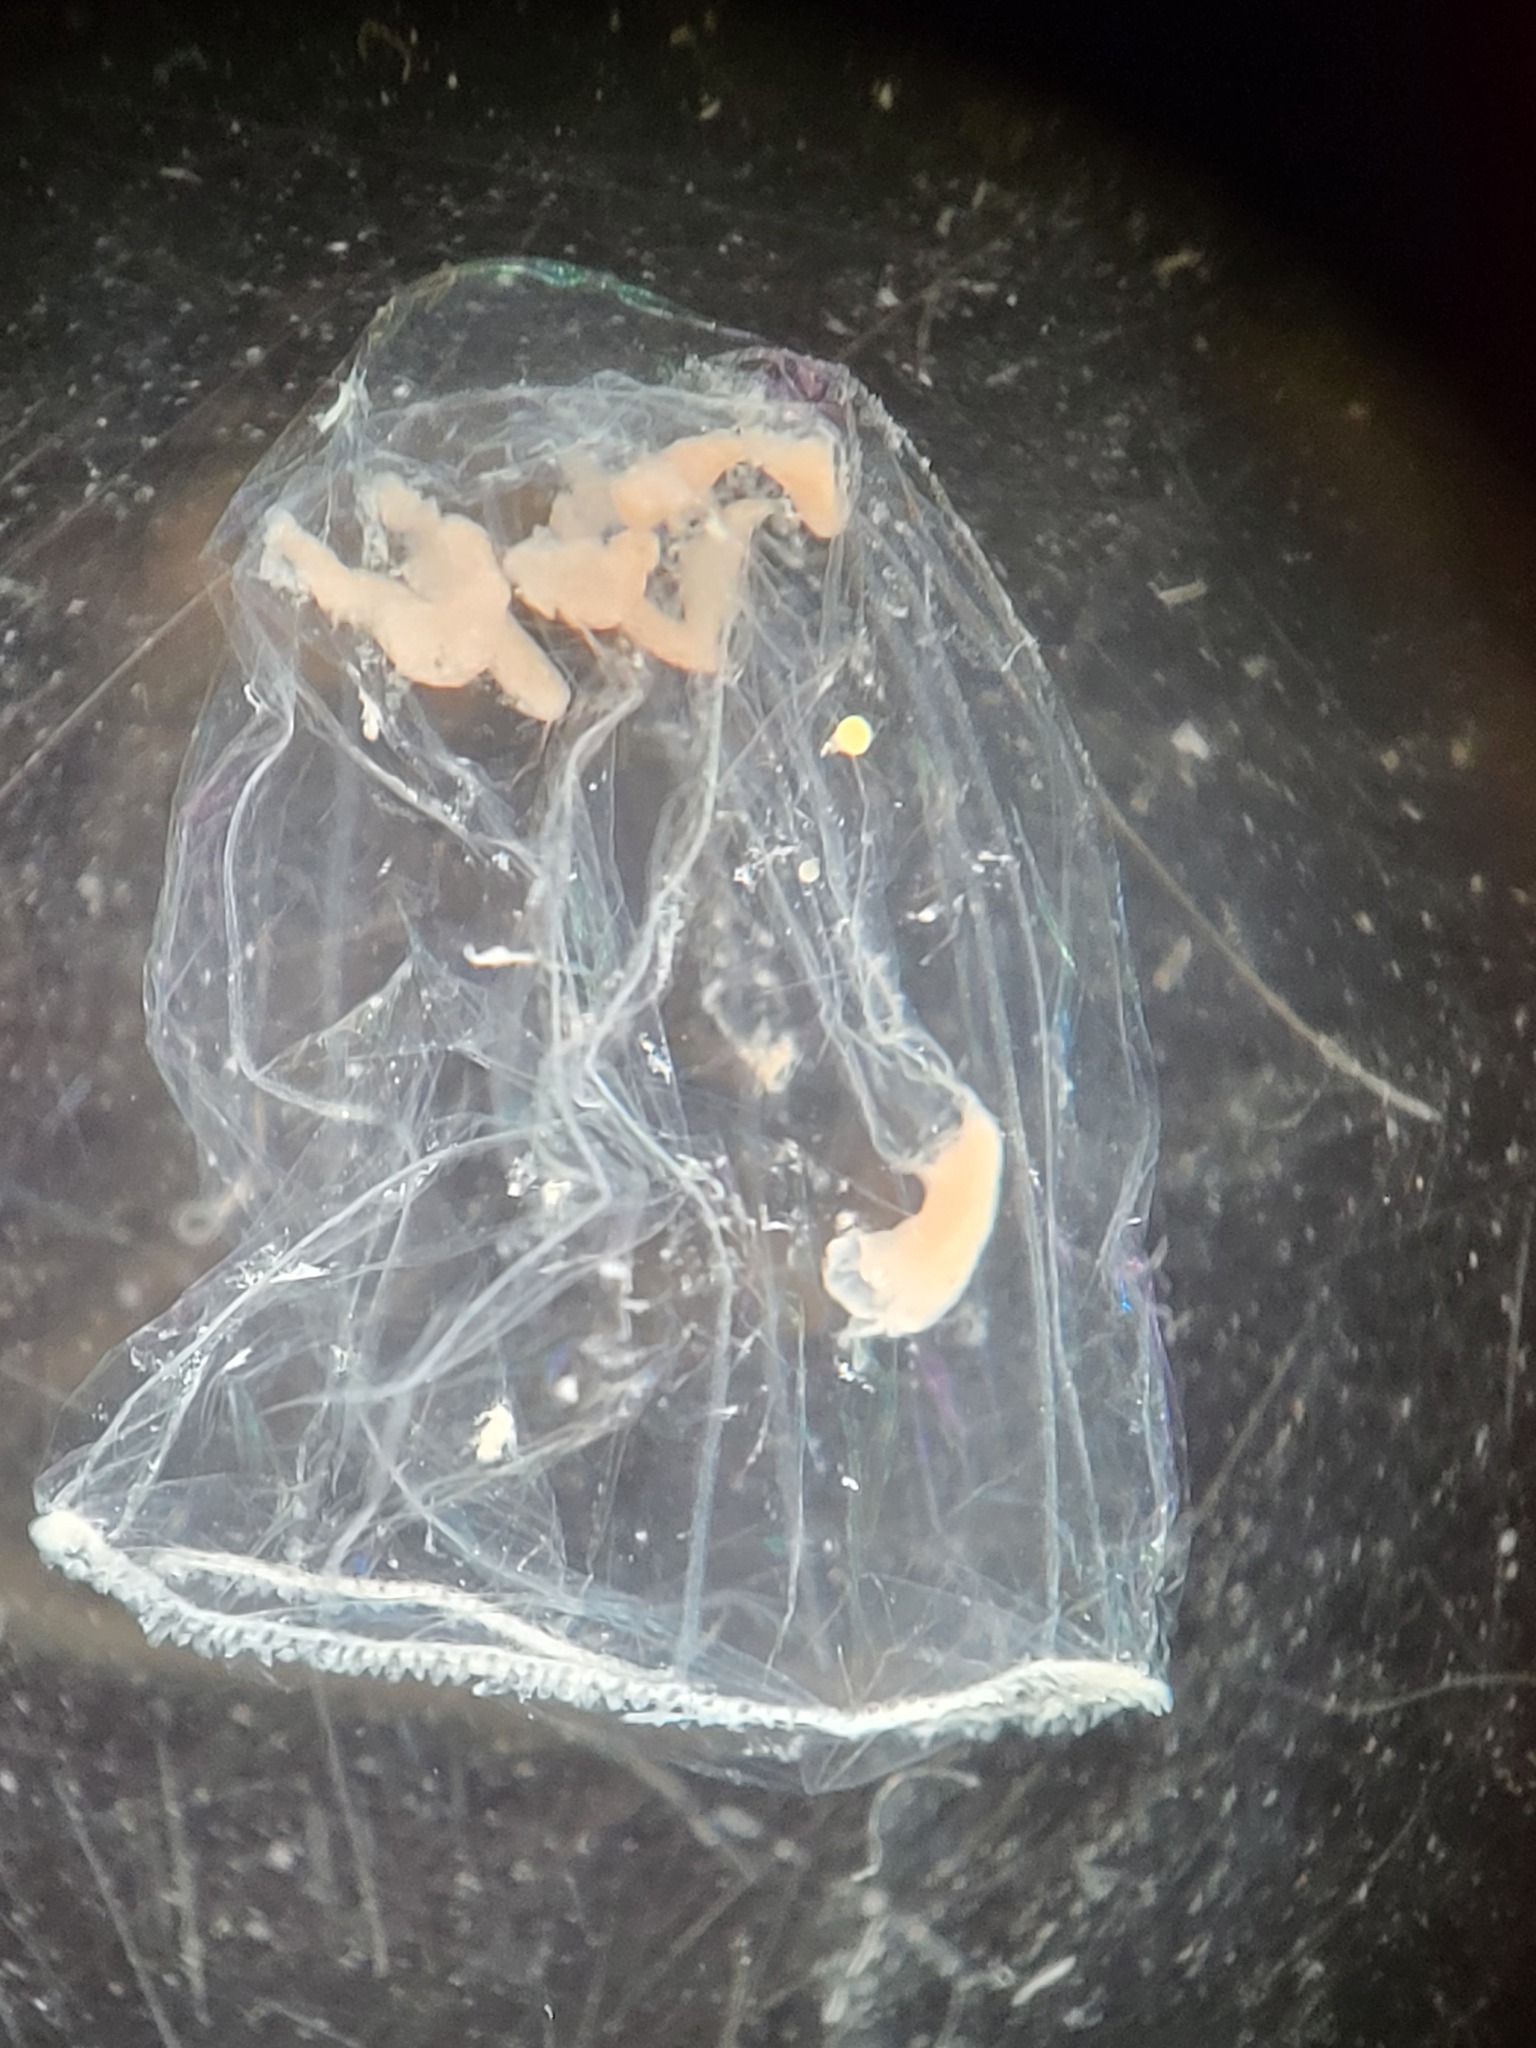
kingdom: Animalia
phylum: Cnidaria
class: Hydrozoa
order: Trachymedusae
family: Rhopalonematidae
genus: Aglantha
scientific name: Aglantha digitale
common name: Pink helmet
